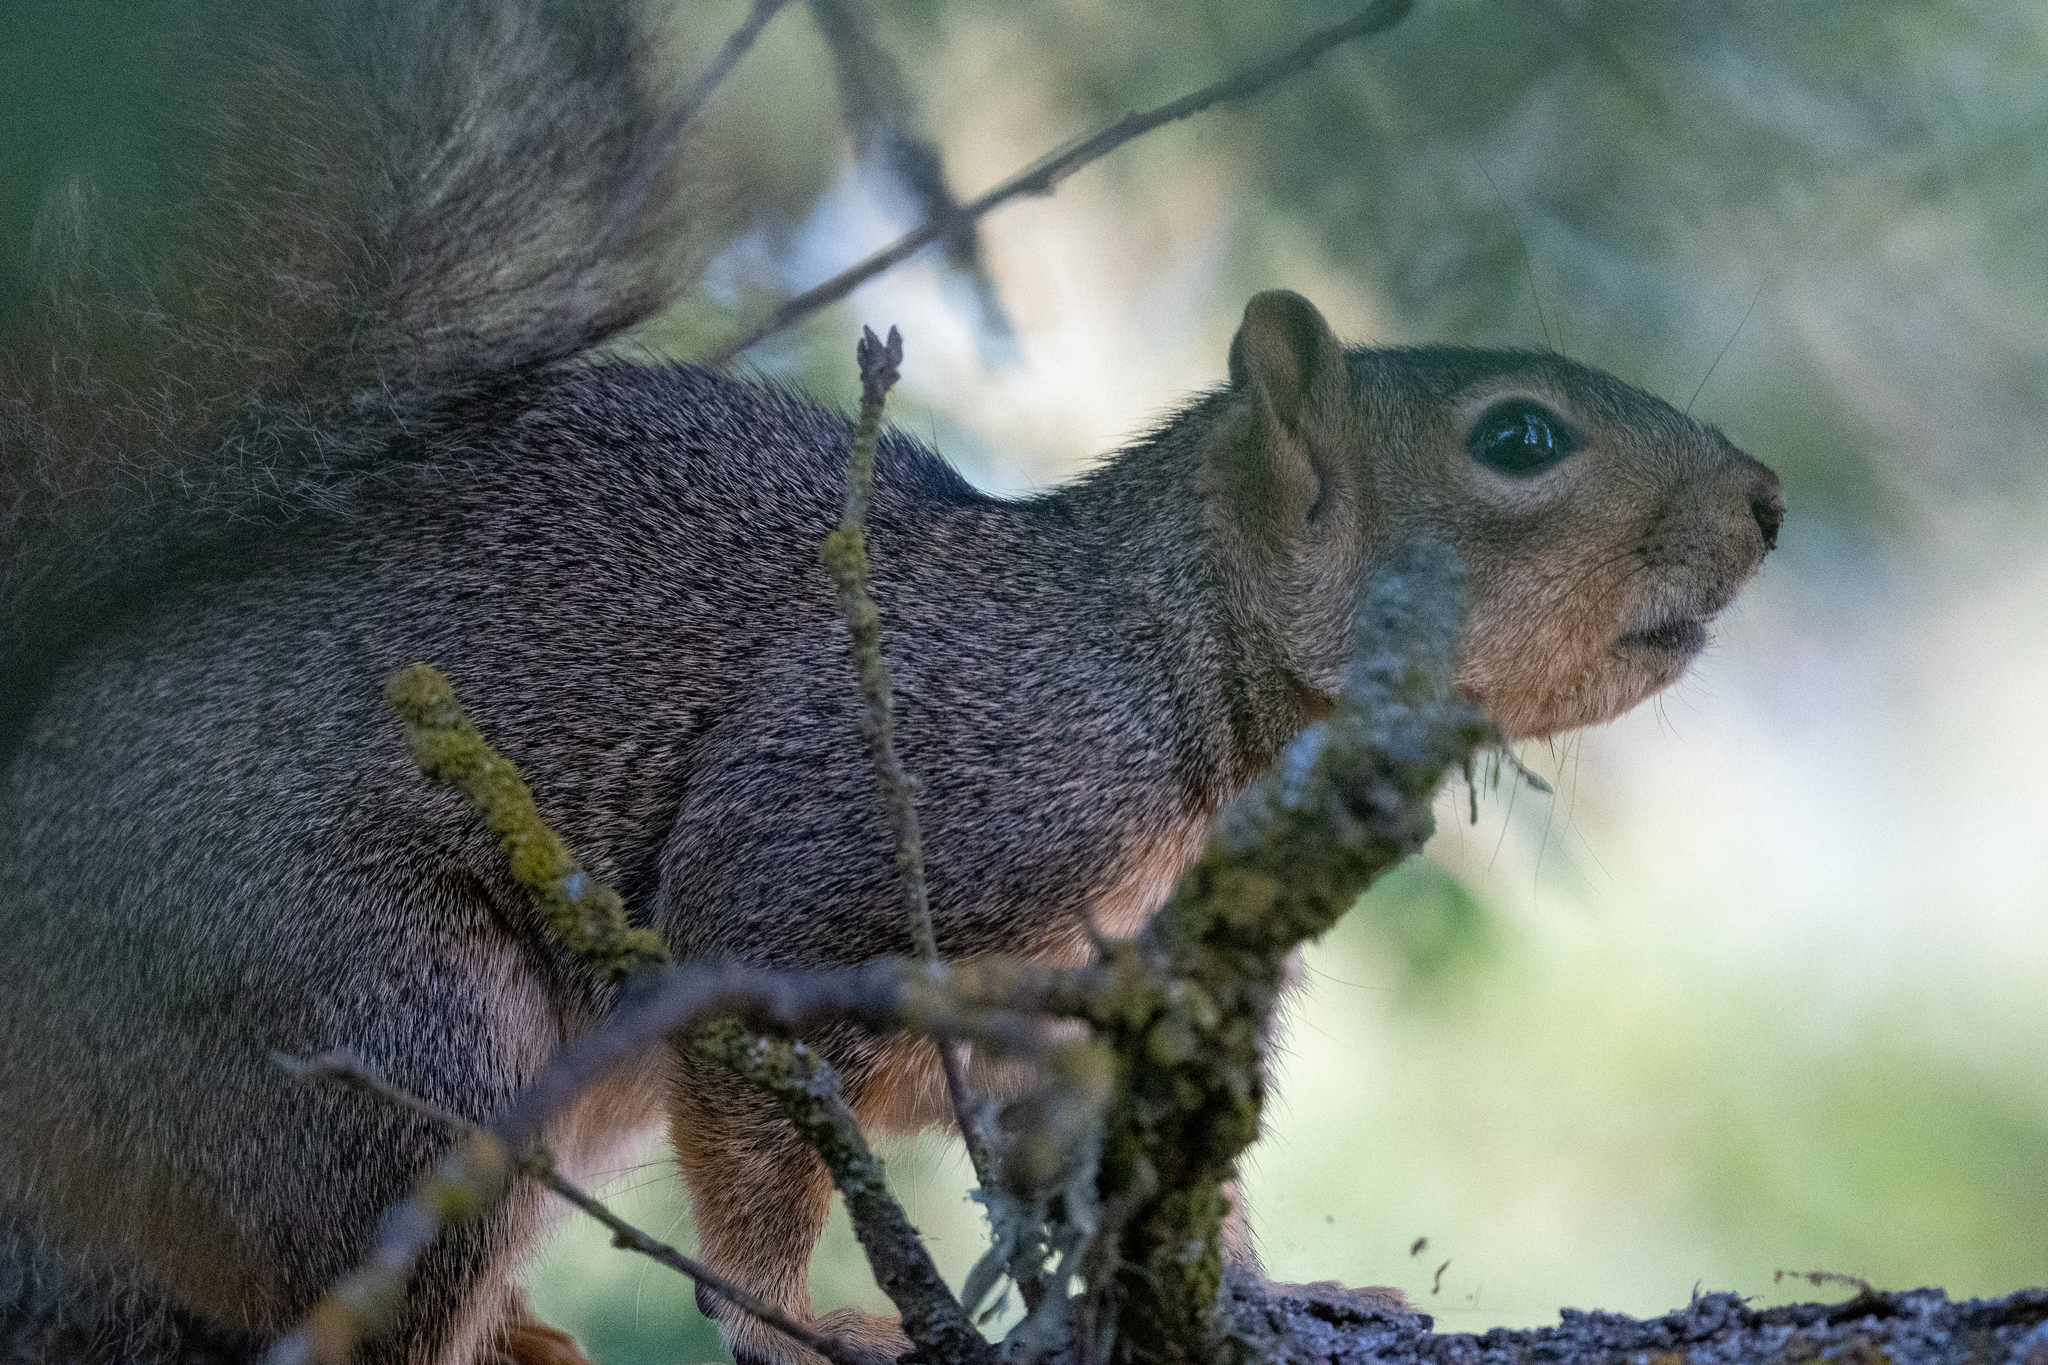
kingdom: Animalia
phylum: Chordata
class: Mammalia
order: Rodentia
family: Sciuridae
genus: Sciurus
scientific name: Sciurus niger
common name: Fox squirrel
